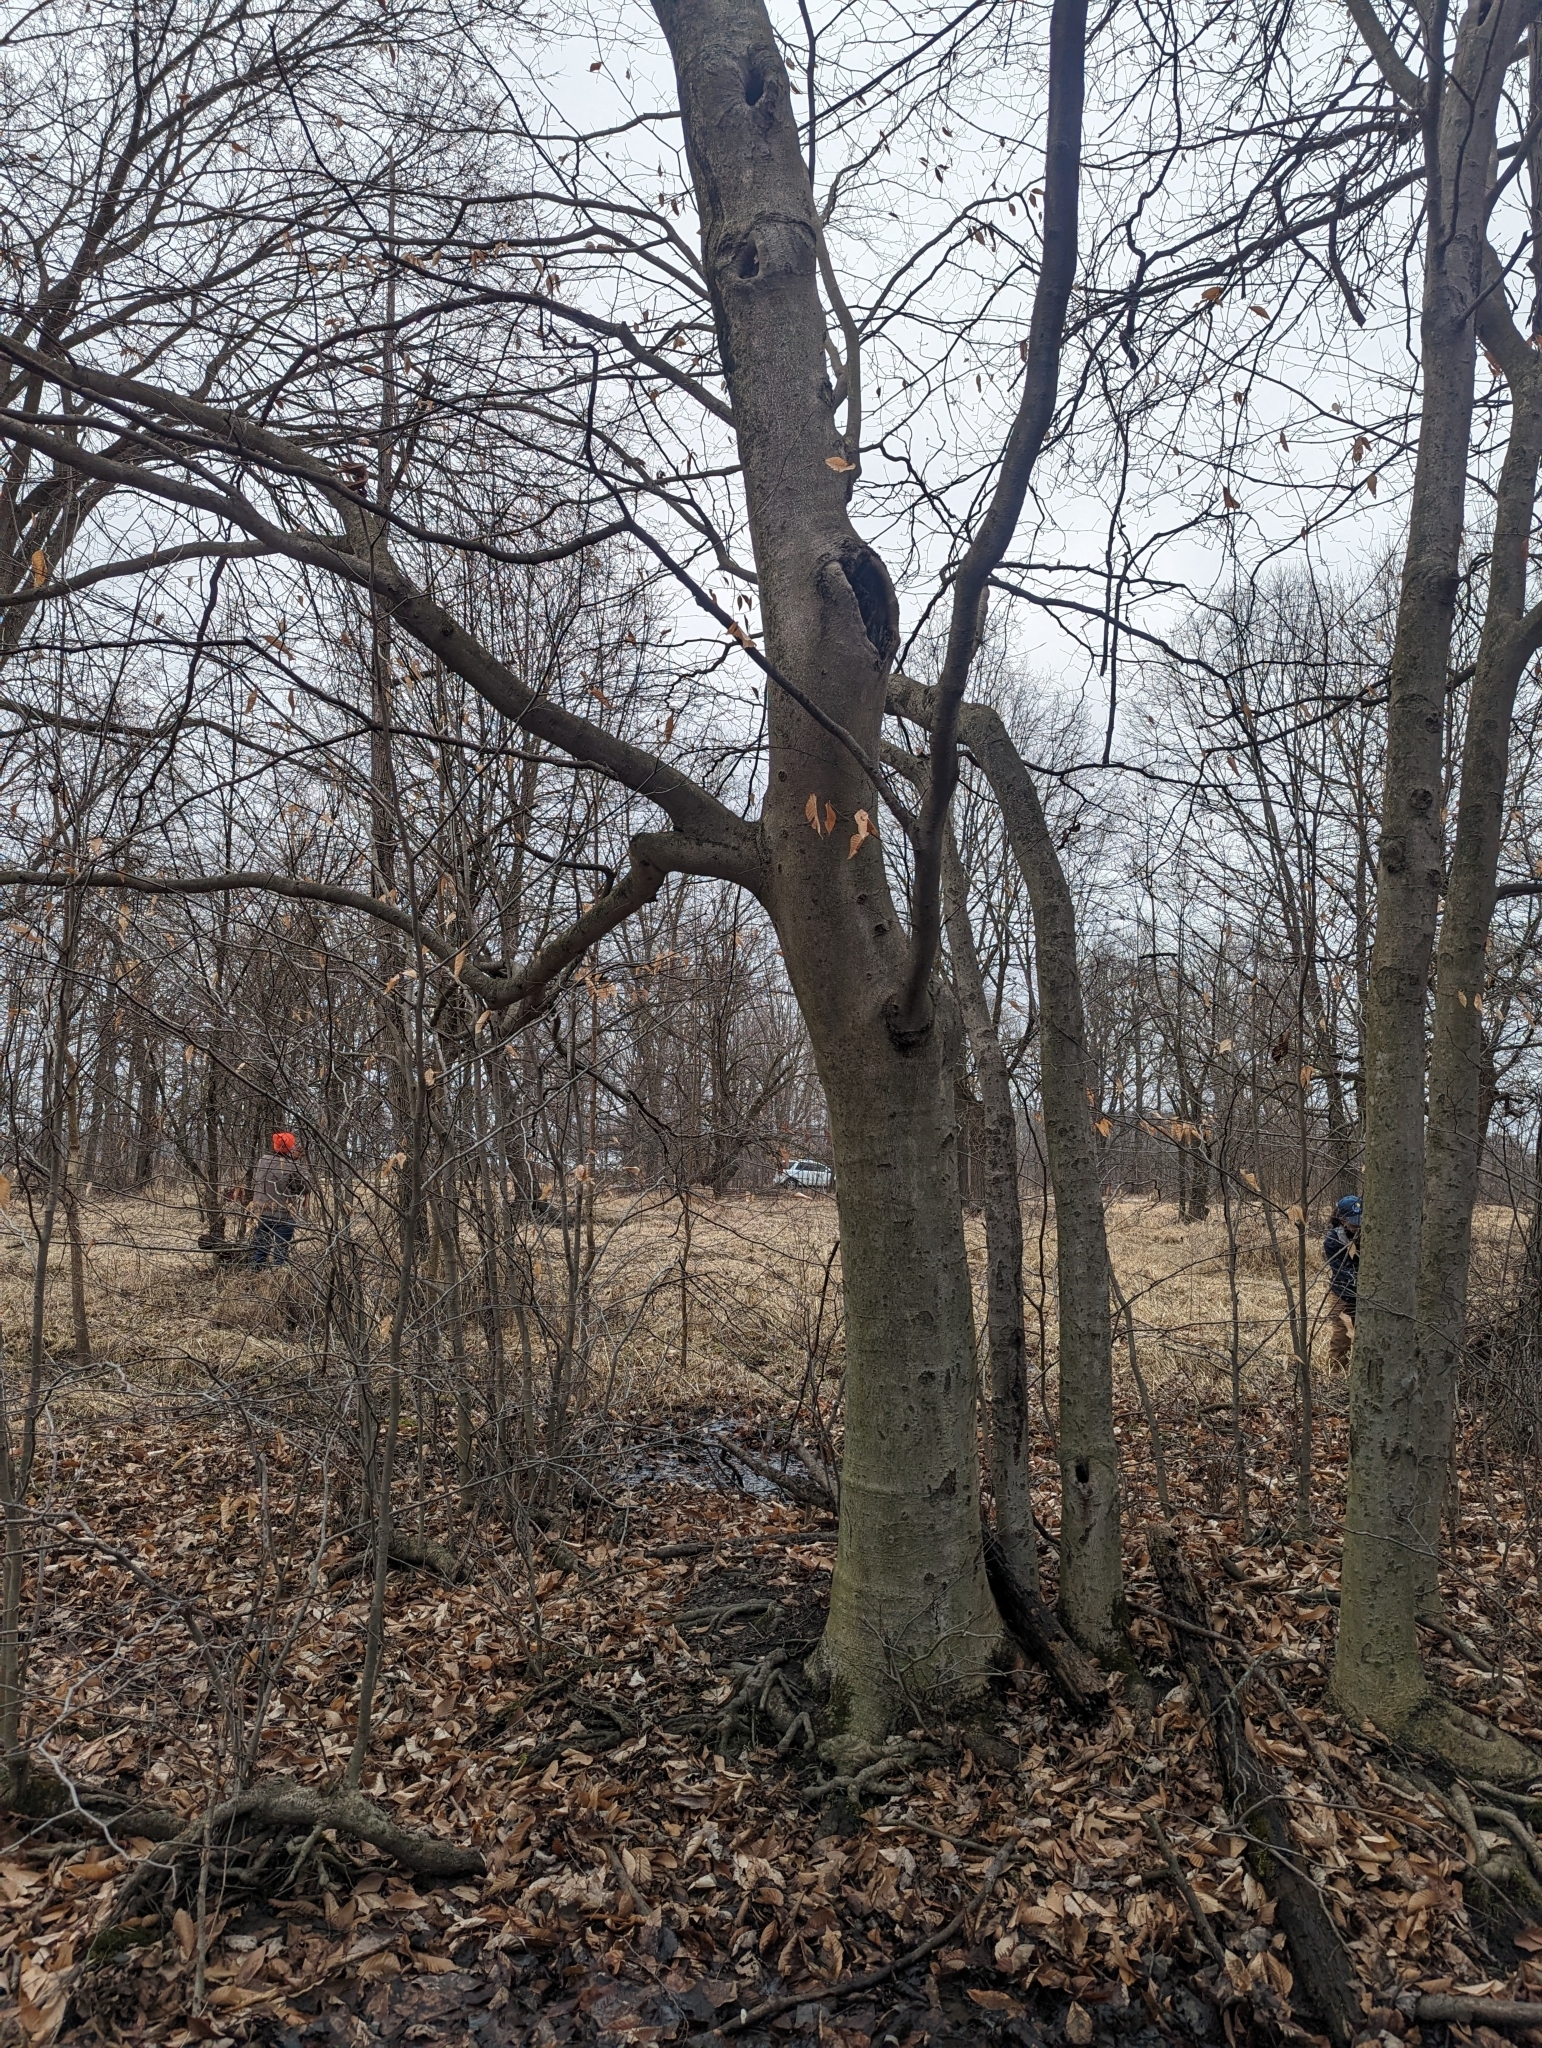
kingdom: Plantae
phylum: Tracheophyta
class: Magnoliopsida
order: Fagales
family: Fagaceae
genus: Fagus
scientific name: Fagus grandifolia
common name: American beech
